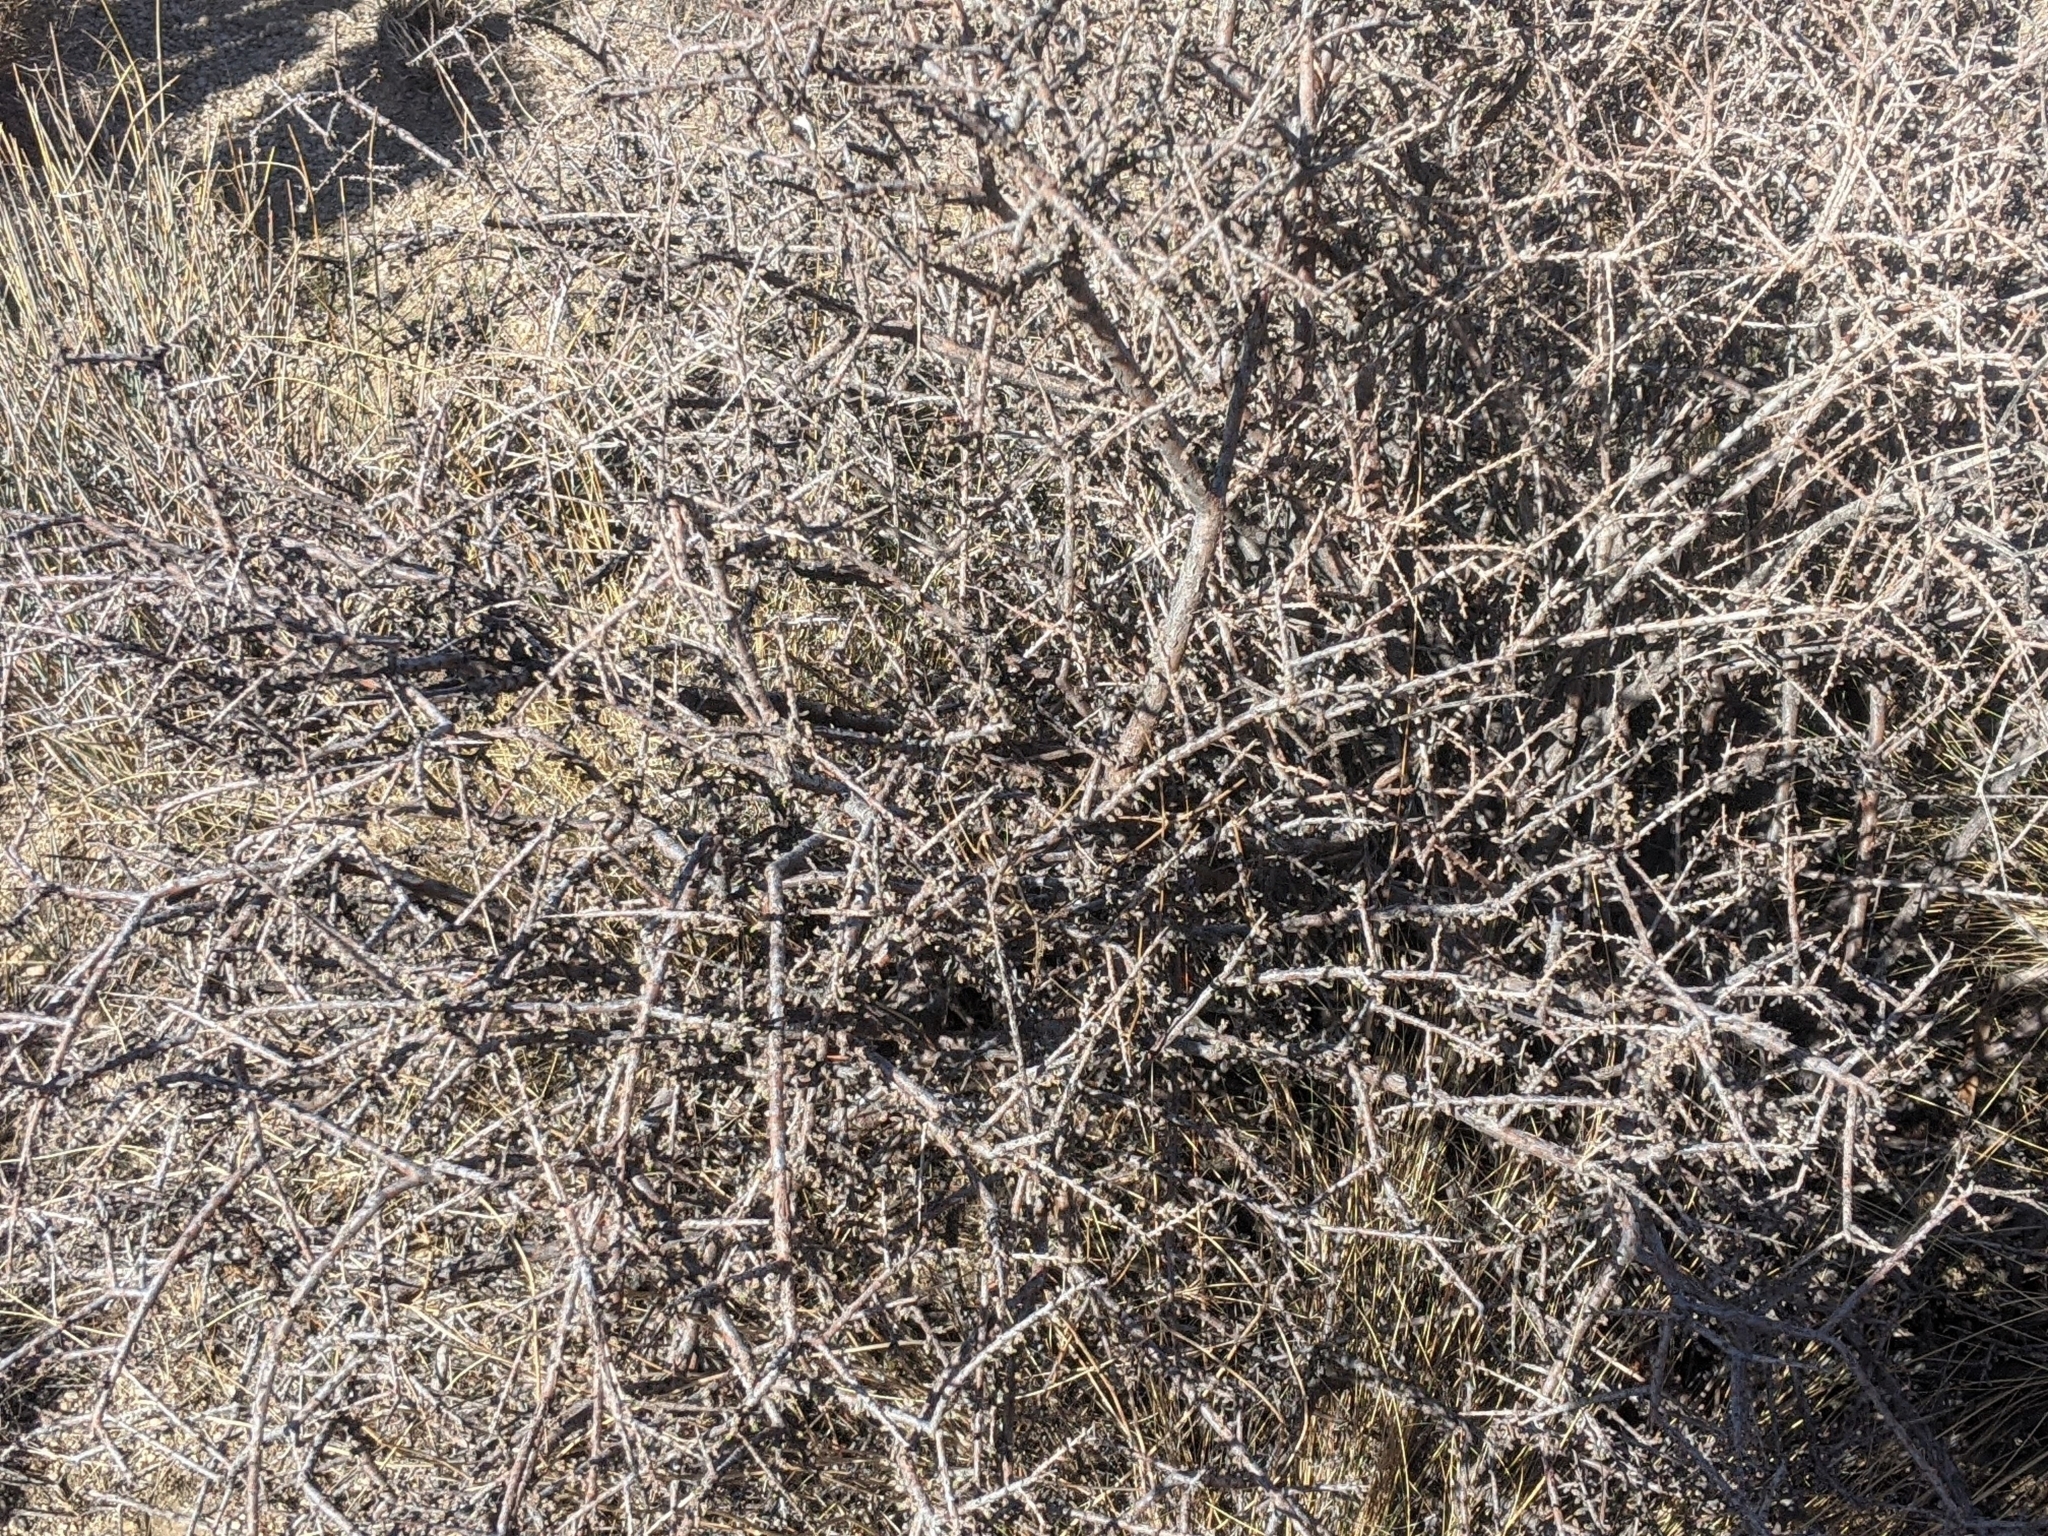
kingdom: Plantae
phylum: Tracheophyta
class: Magnoliopsida
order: Rosales
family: Rosaceae
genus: Prunus
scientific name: Prunus fasciculata
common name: Desert almond
